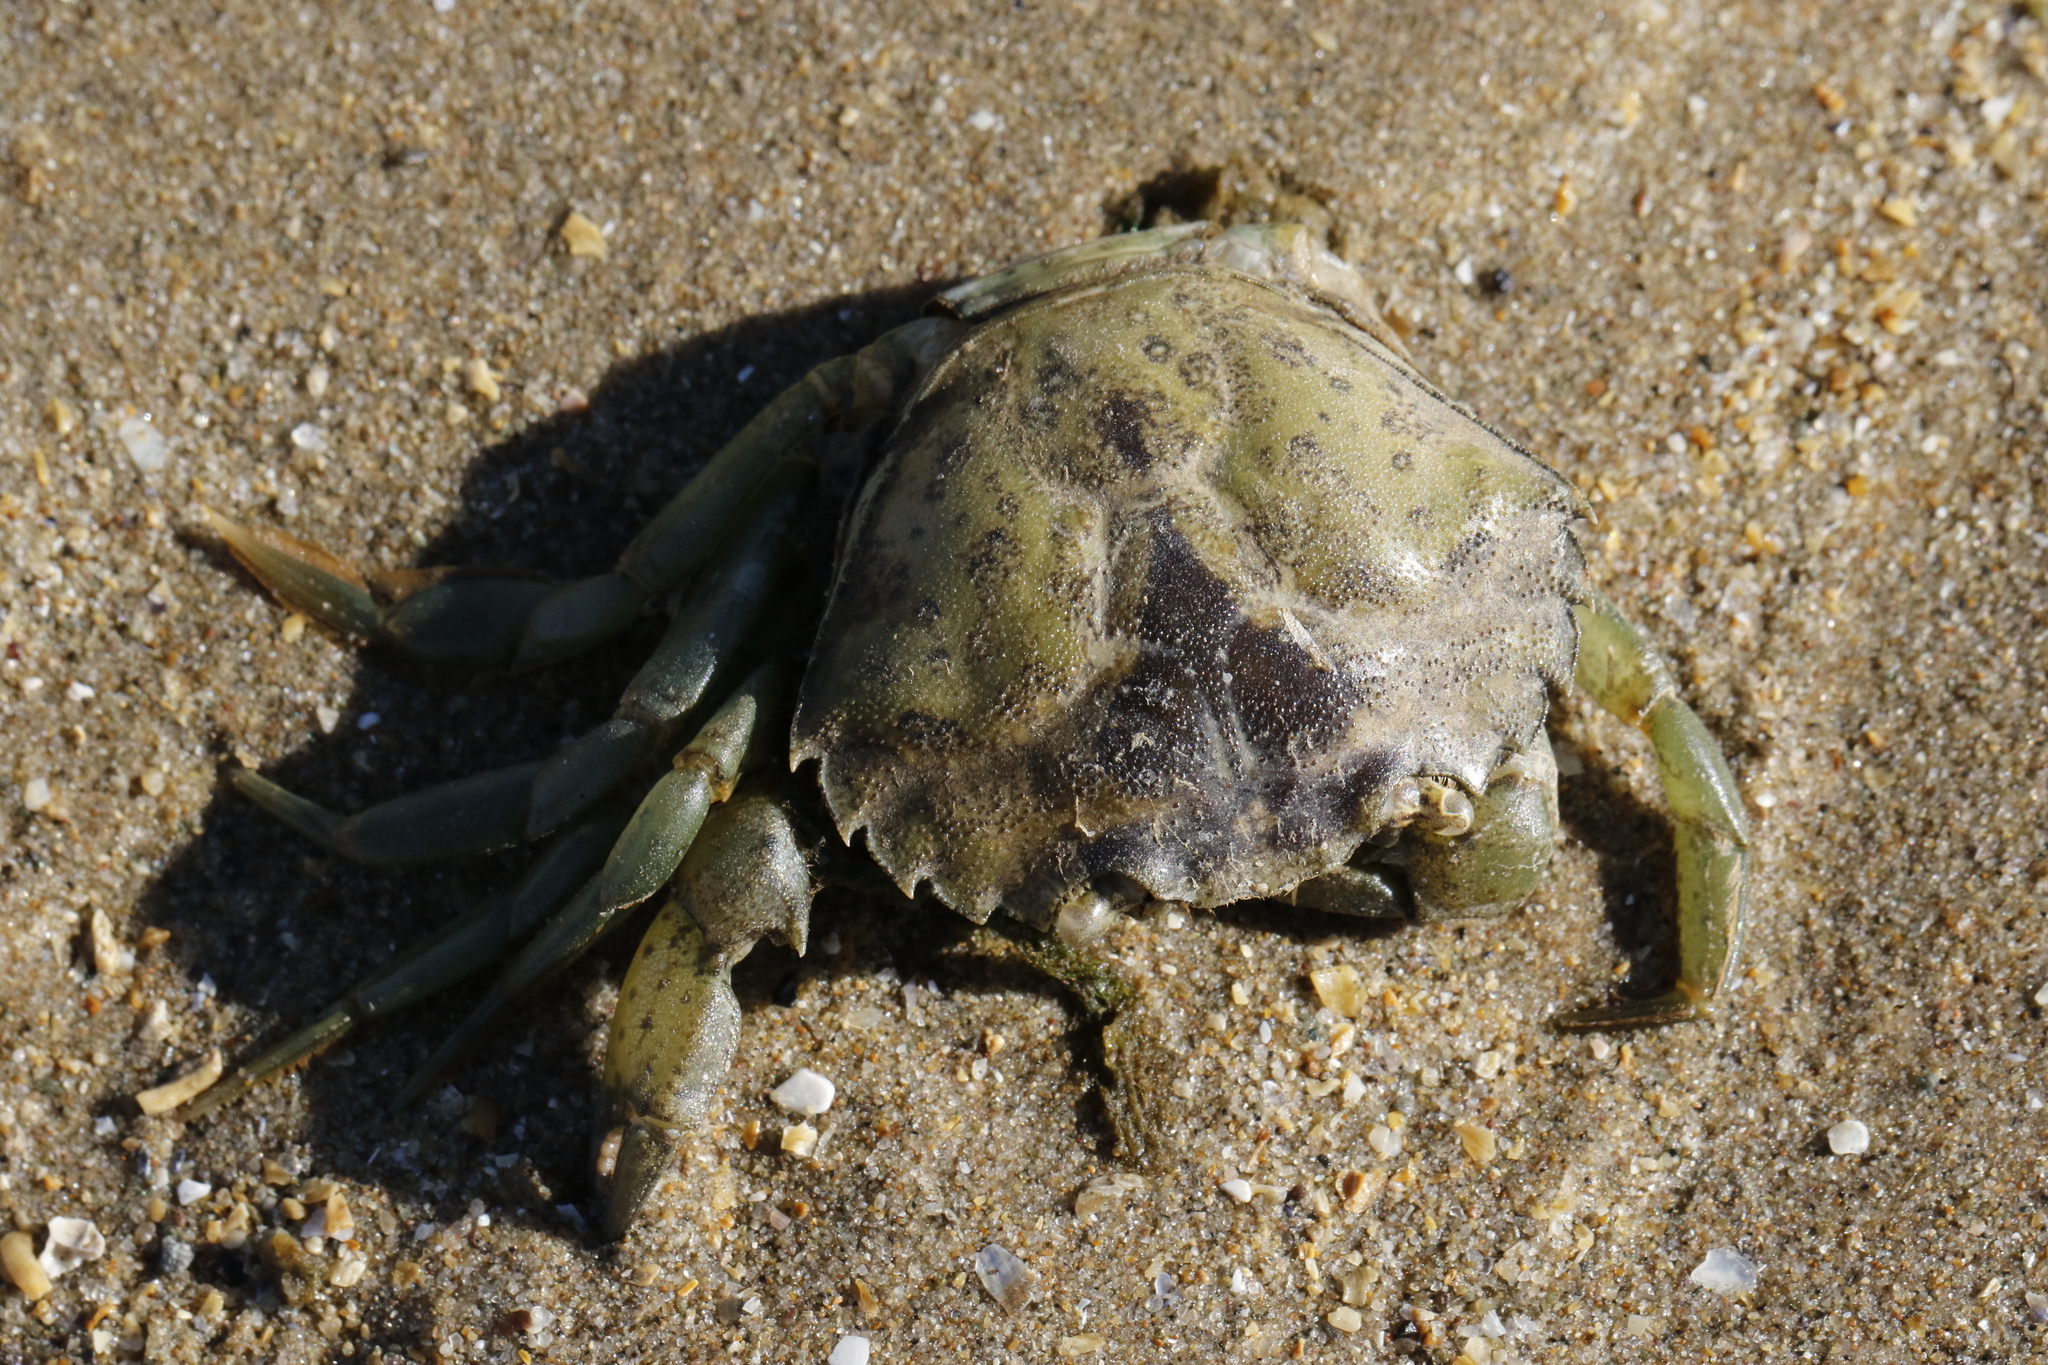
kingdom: Animalia
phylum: Arthropoda
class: Malacostraca
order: Decapoda
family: Carcinidae
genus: Carcinus
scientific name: Carcinus maenas
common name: European green crab
